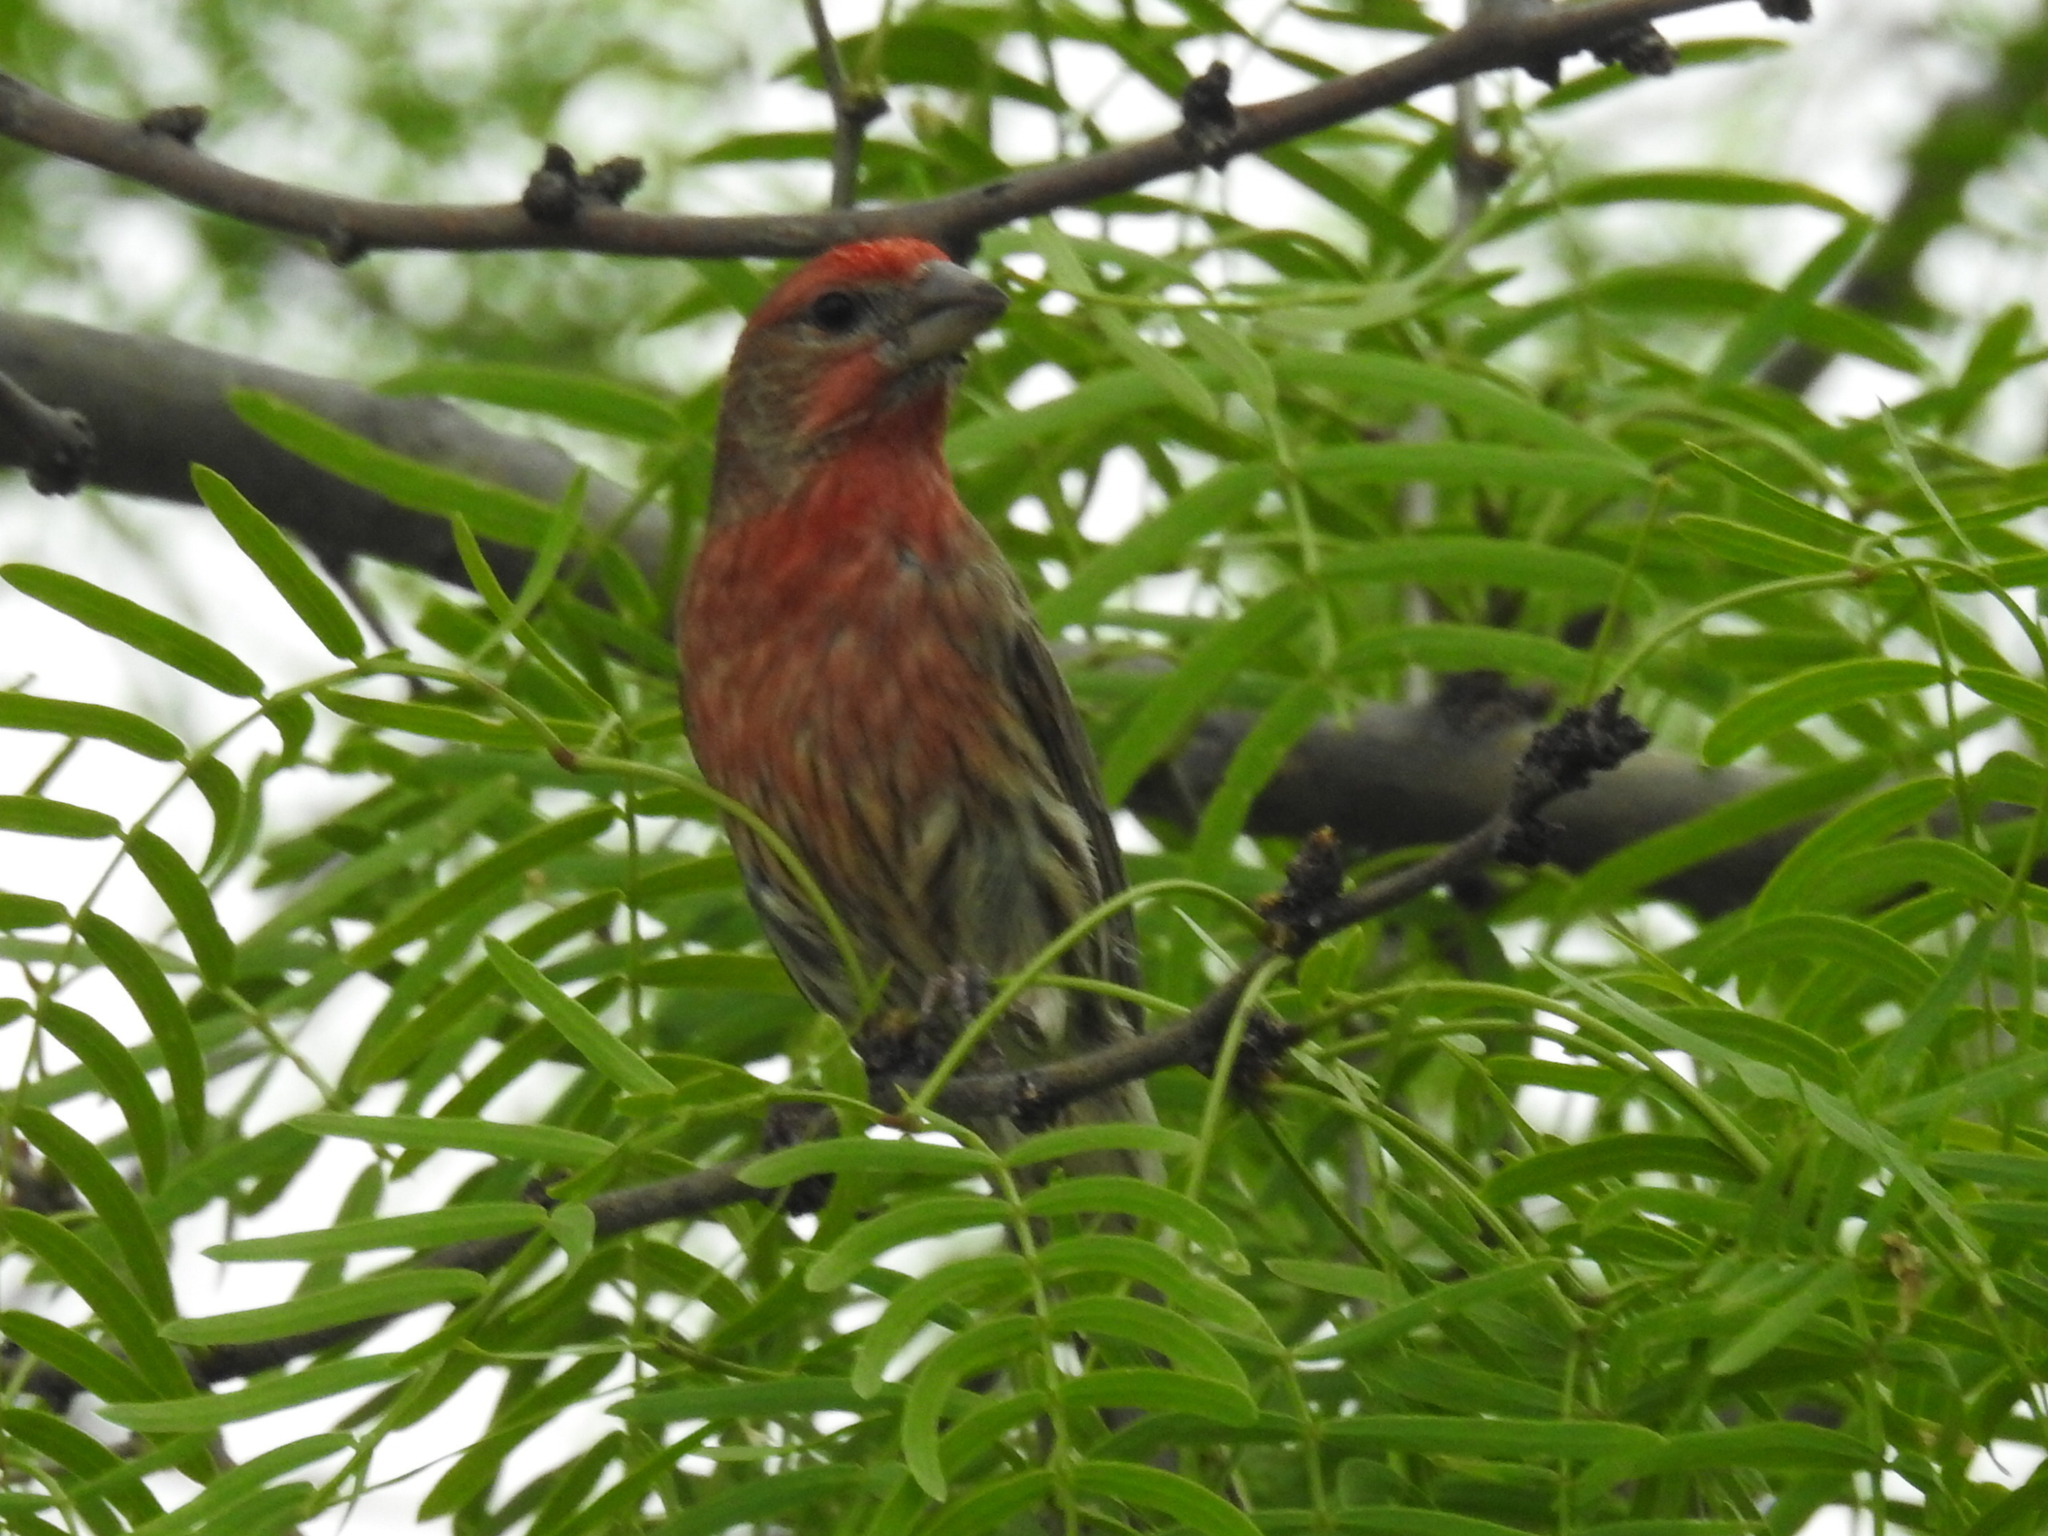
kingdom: Animalia
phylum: Chordata
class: Aves
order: Passeriformes
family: Fringillidae
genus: Haemorhous
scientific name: Haemorhous mexicanus
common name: House finch
